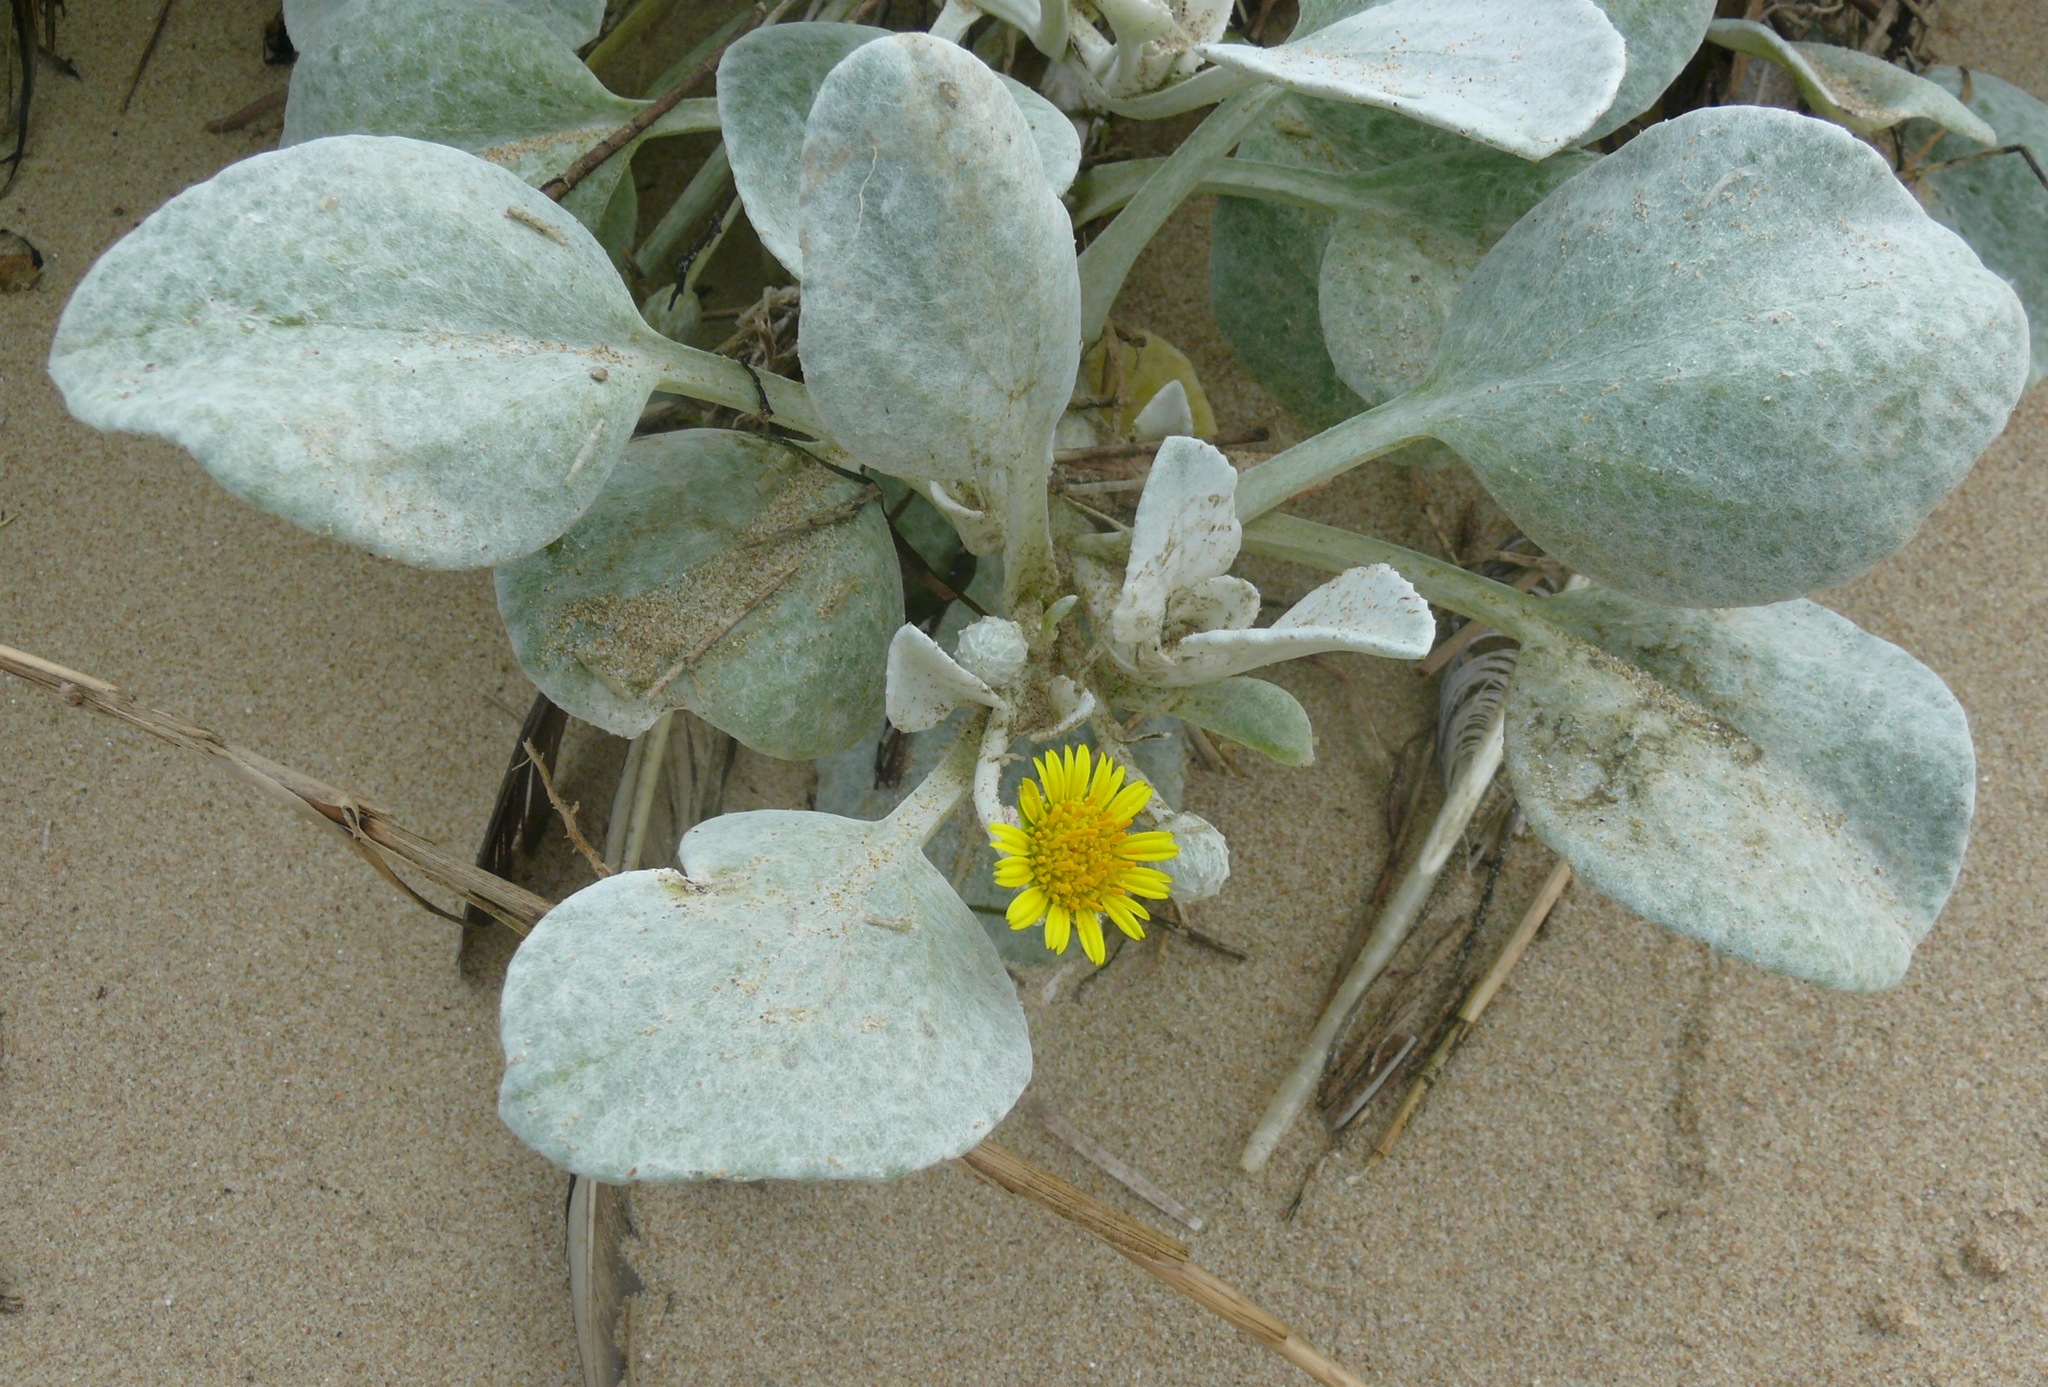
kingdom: Plantae
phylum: Tracheophyta
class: Magnoliopsida
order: Asterales
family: Asteraceae
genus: Arctotheca
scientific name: Arctotheca populifolia
